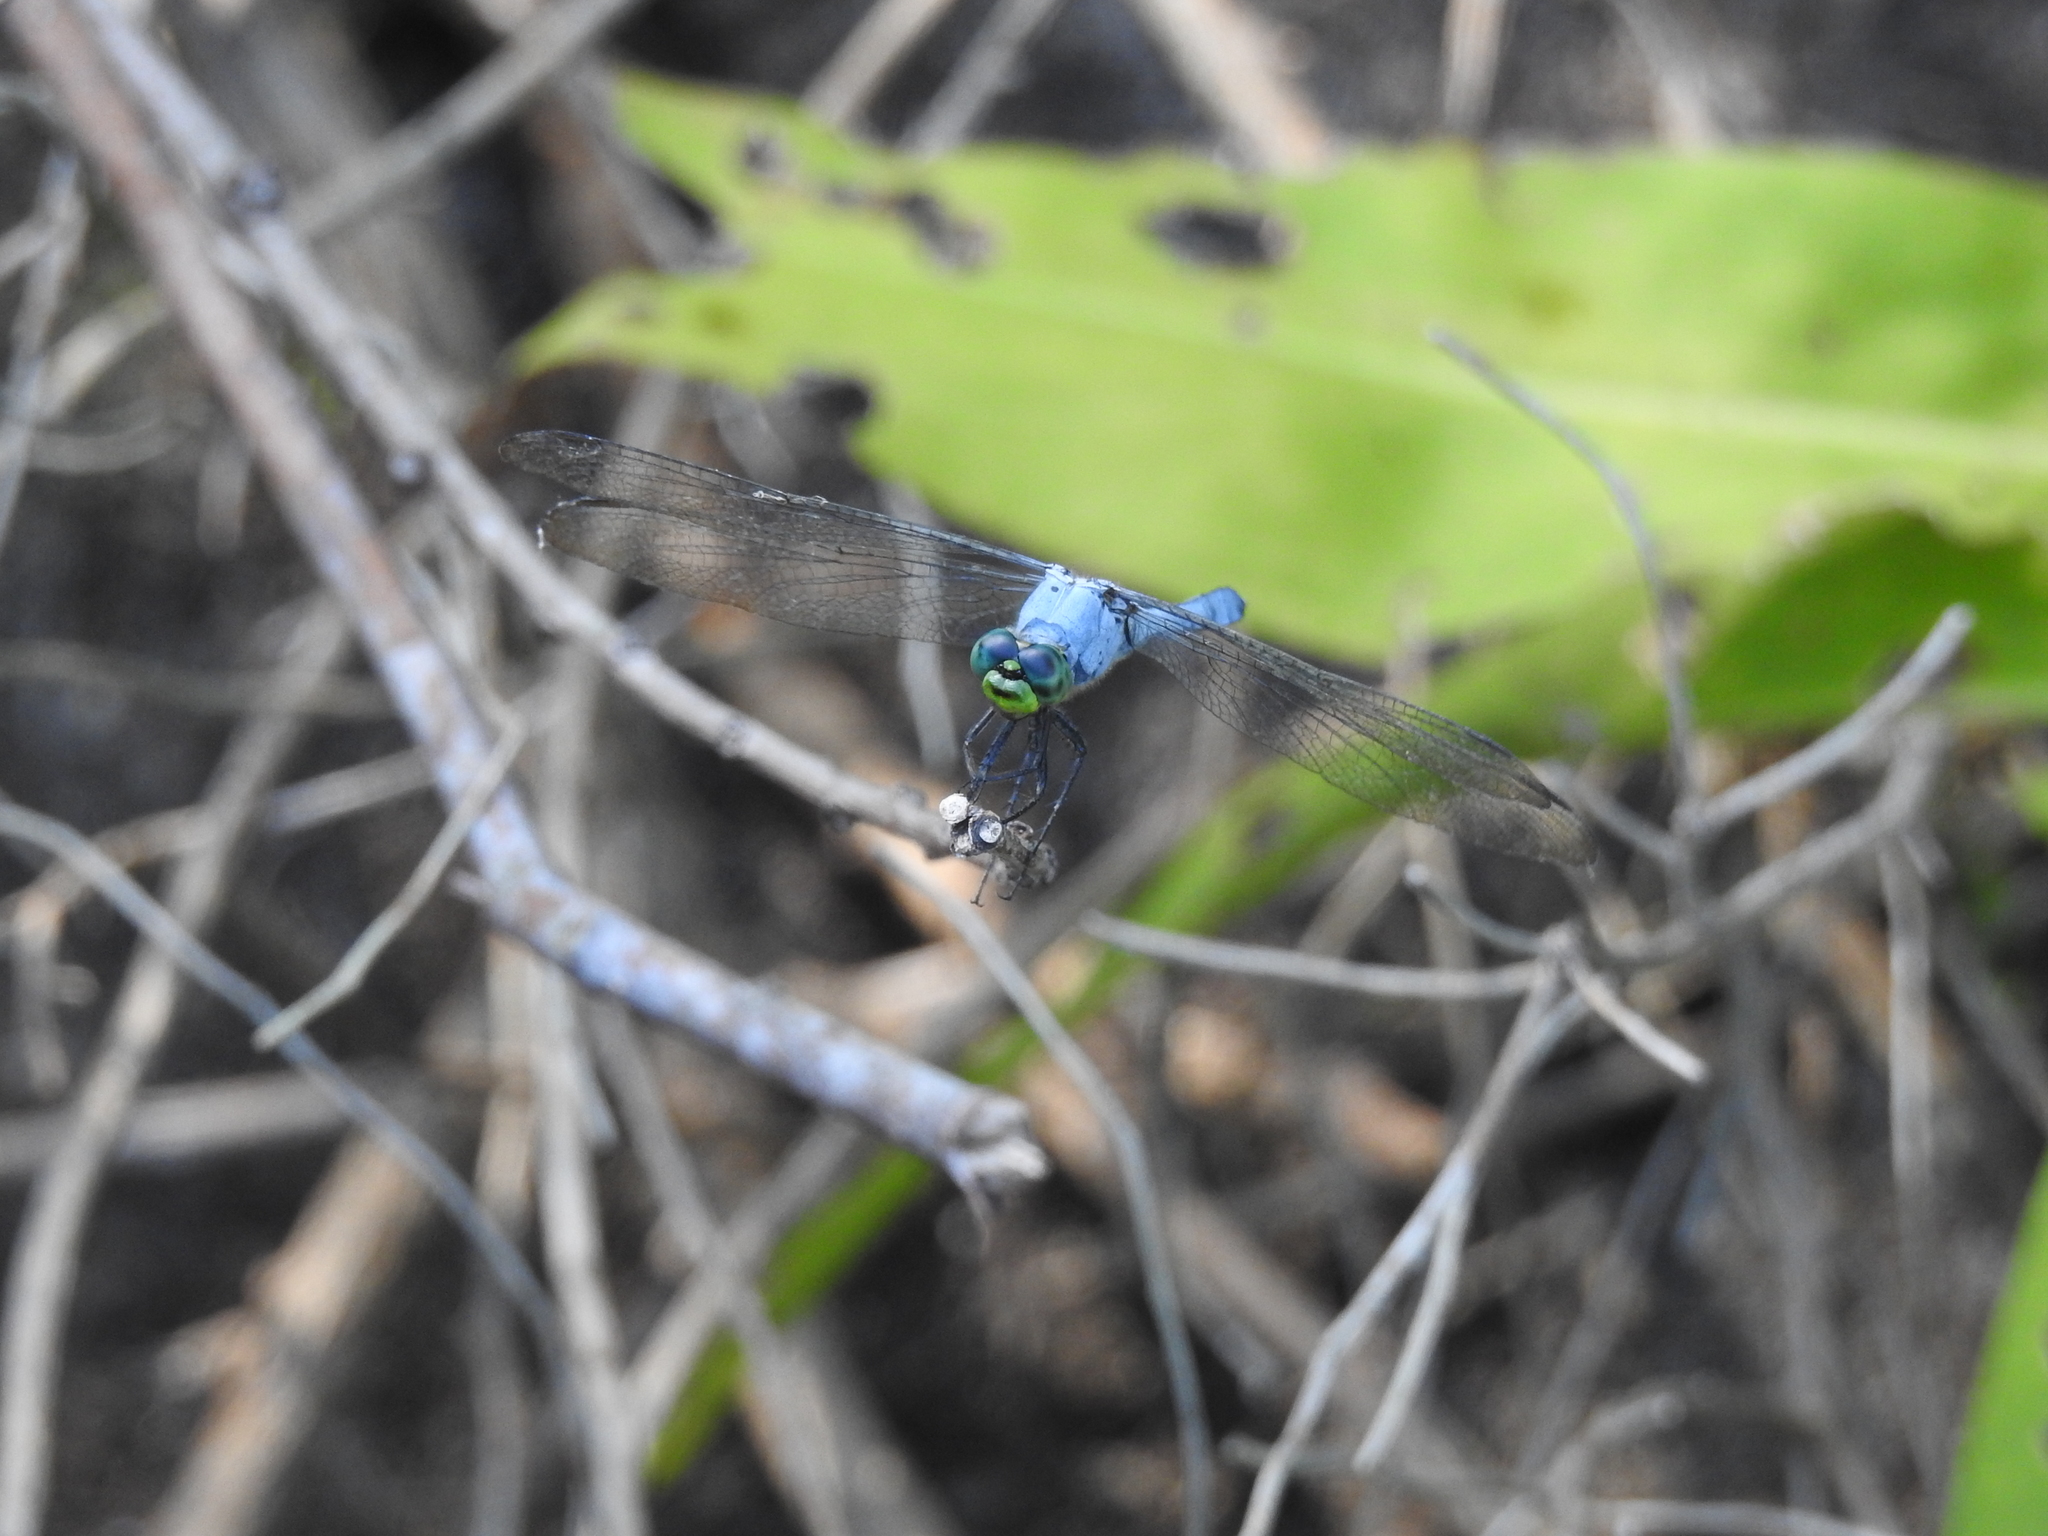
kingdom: Animalia
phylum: Arthropoda
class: Insecta
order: Odonata
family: Libellulidae
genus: Erythemis
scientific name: Erythemis simplicicollis
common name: Eastern pondhawk
